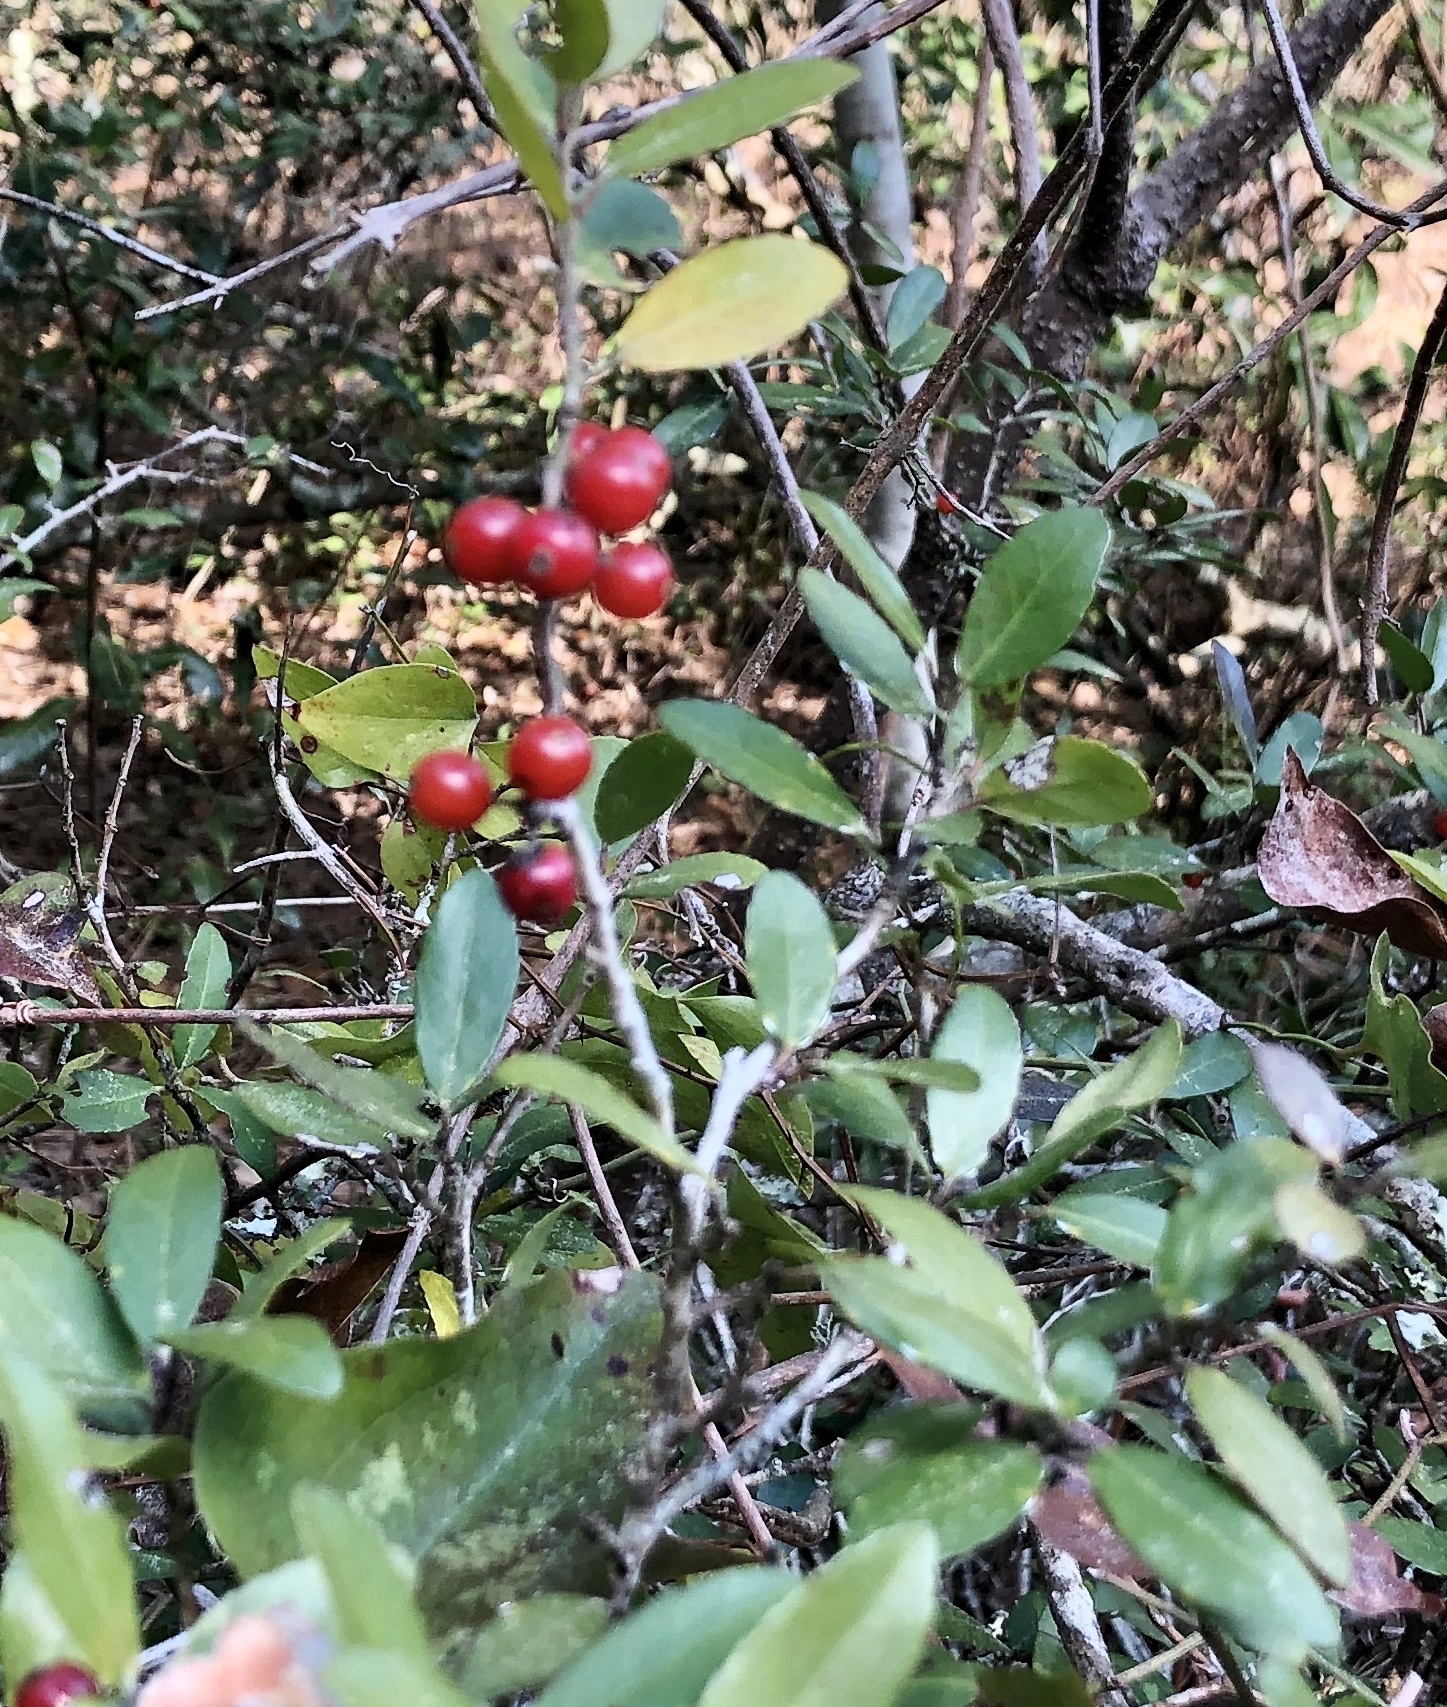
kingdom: Plantae
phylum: Tracheophyta
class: Magnoliopsida
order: Aquifoliales
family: Aquifoliaceae
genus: Ilex
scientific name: Ilex vomitoria
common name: Yaupon holly
